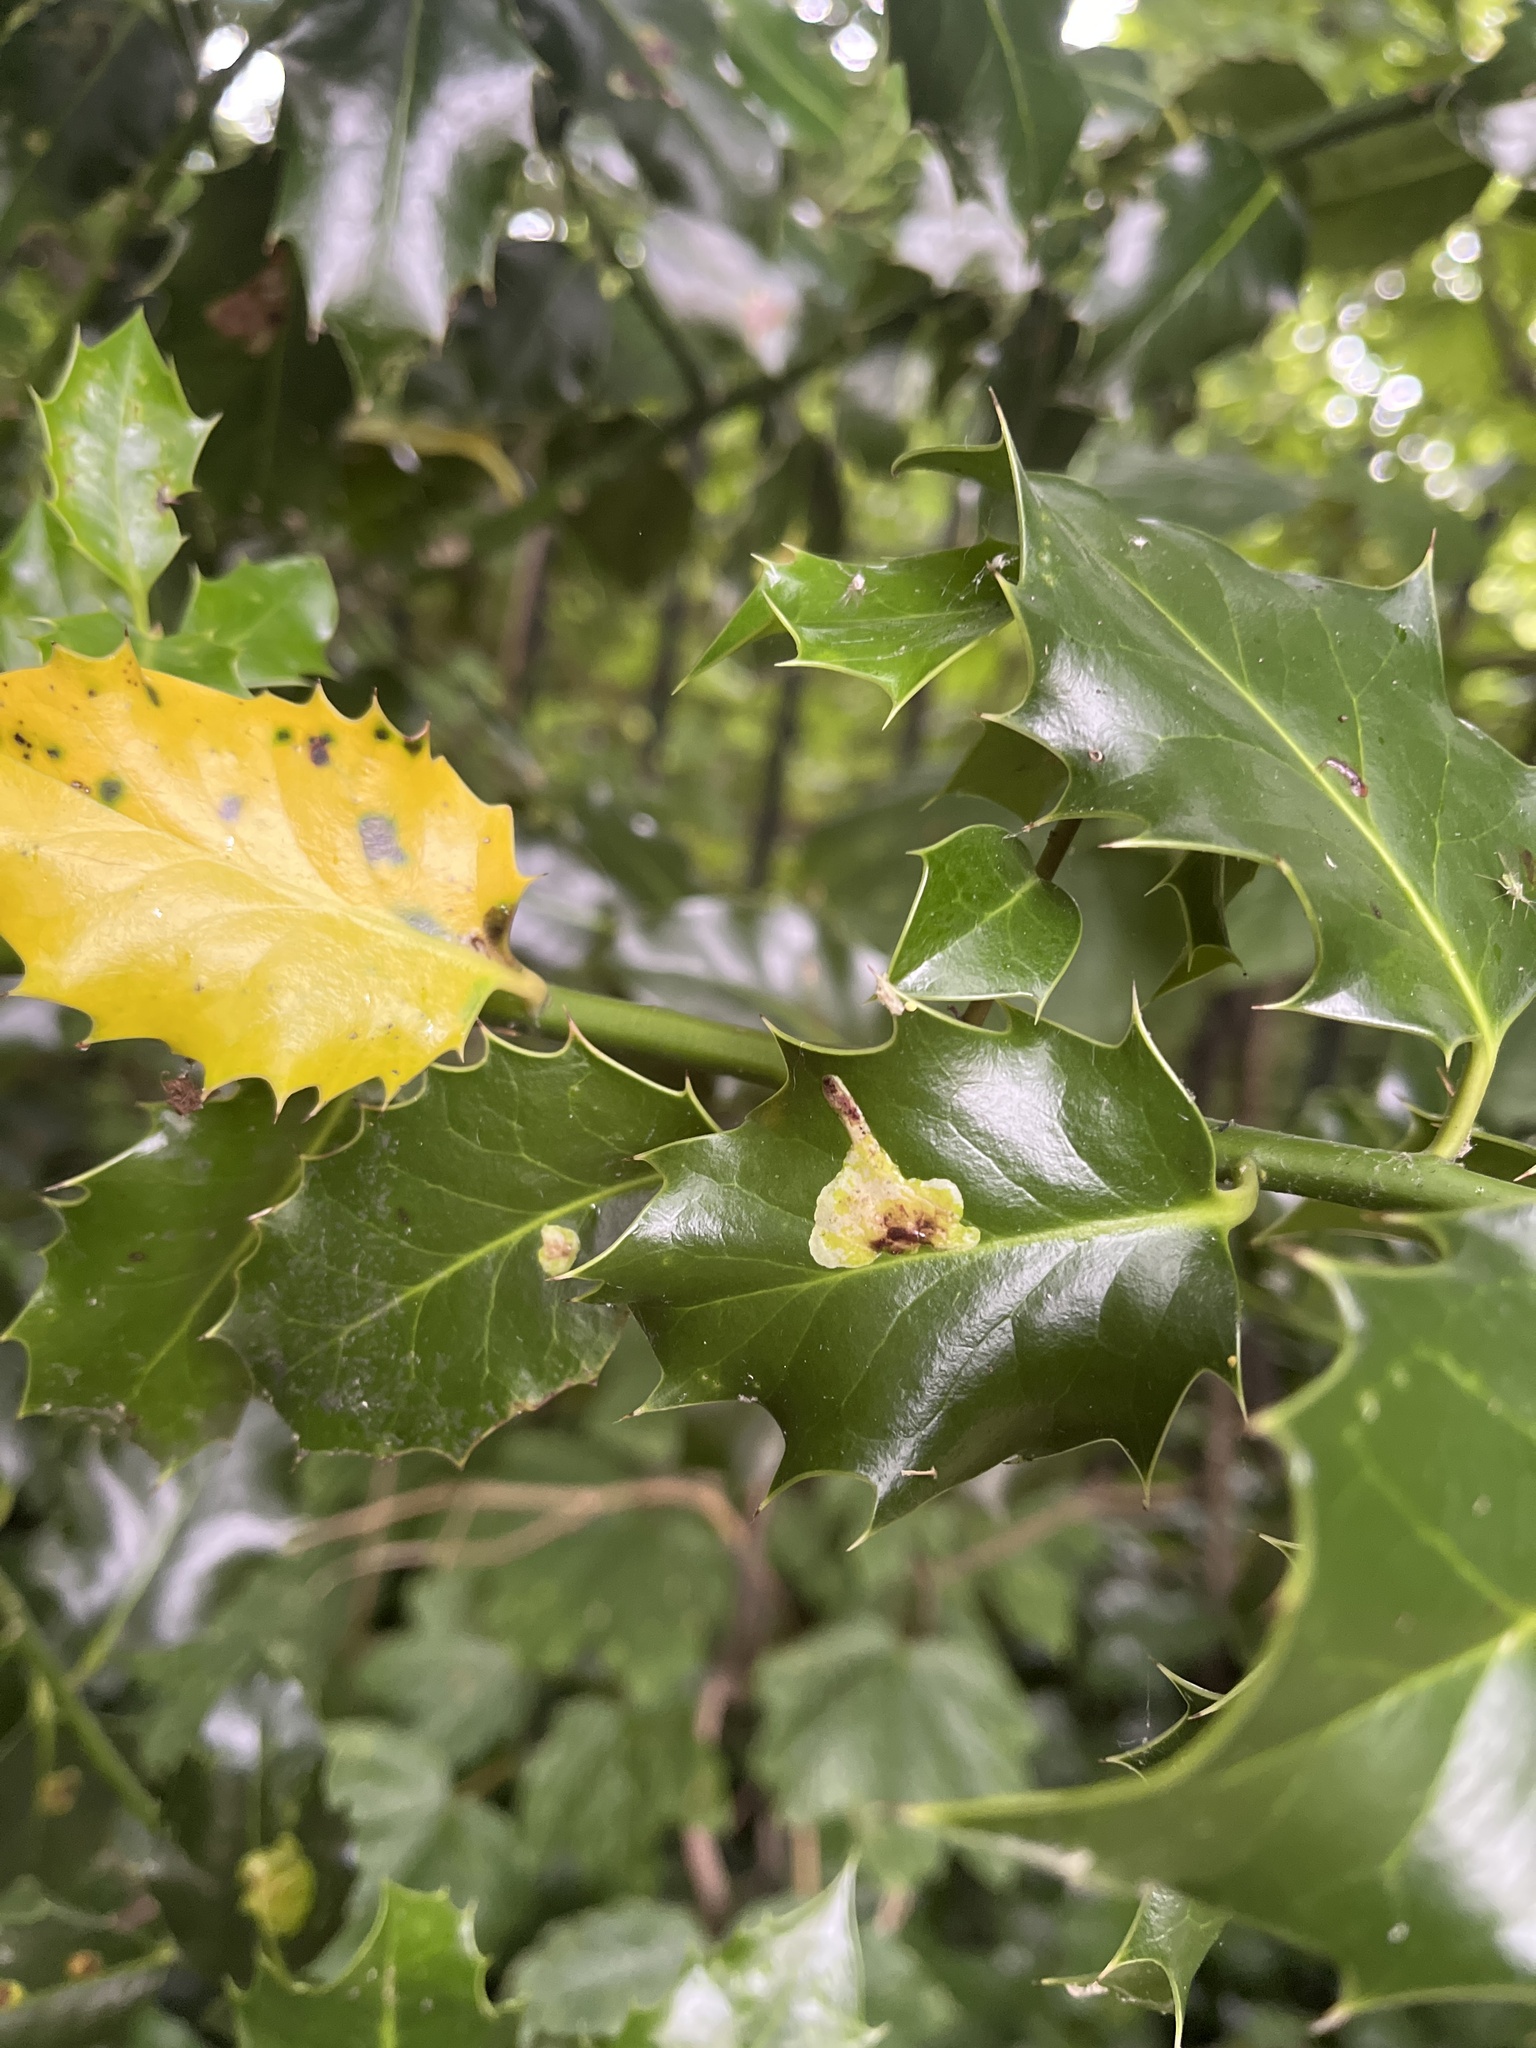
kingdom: Animalia
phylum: Arthropoda
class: Insecta
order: Diptera
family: Agromyzidae
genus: Phytomyza
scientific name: Phytomyza ilicis
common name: Holly leafminer
